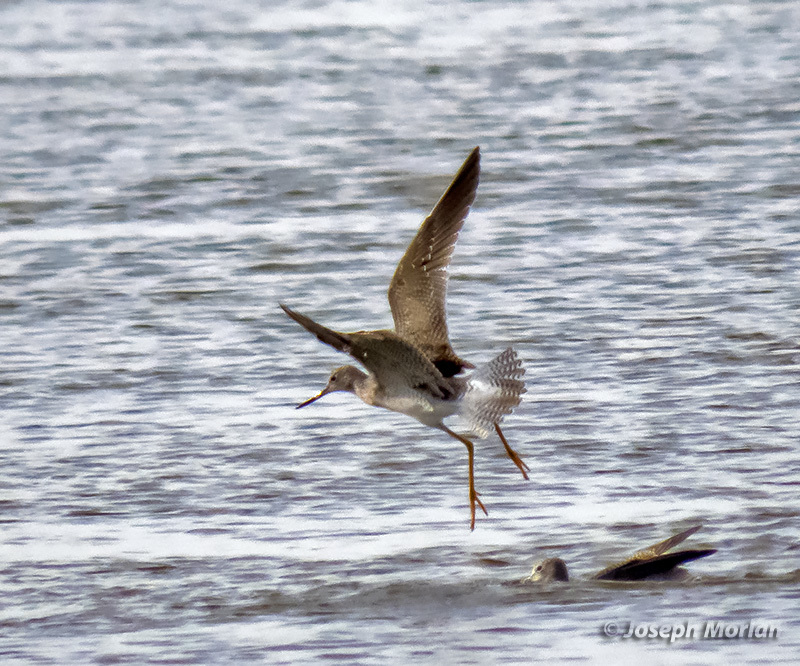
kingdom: Animalia
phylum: Chordata
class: Aves
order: Charadriiformes
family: Scolopacidae
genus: Tringa
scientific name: Tringa melanoleuca
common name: Greater yellowlegs
